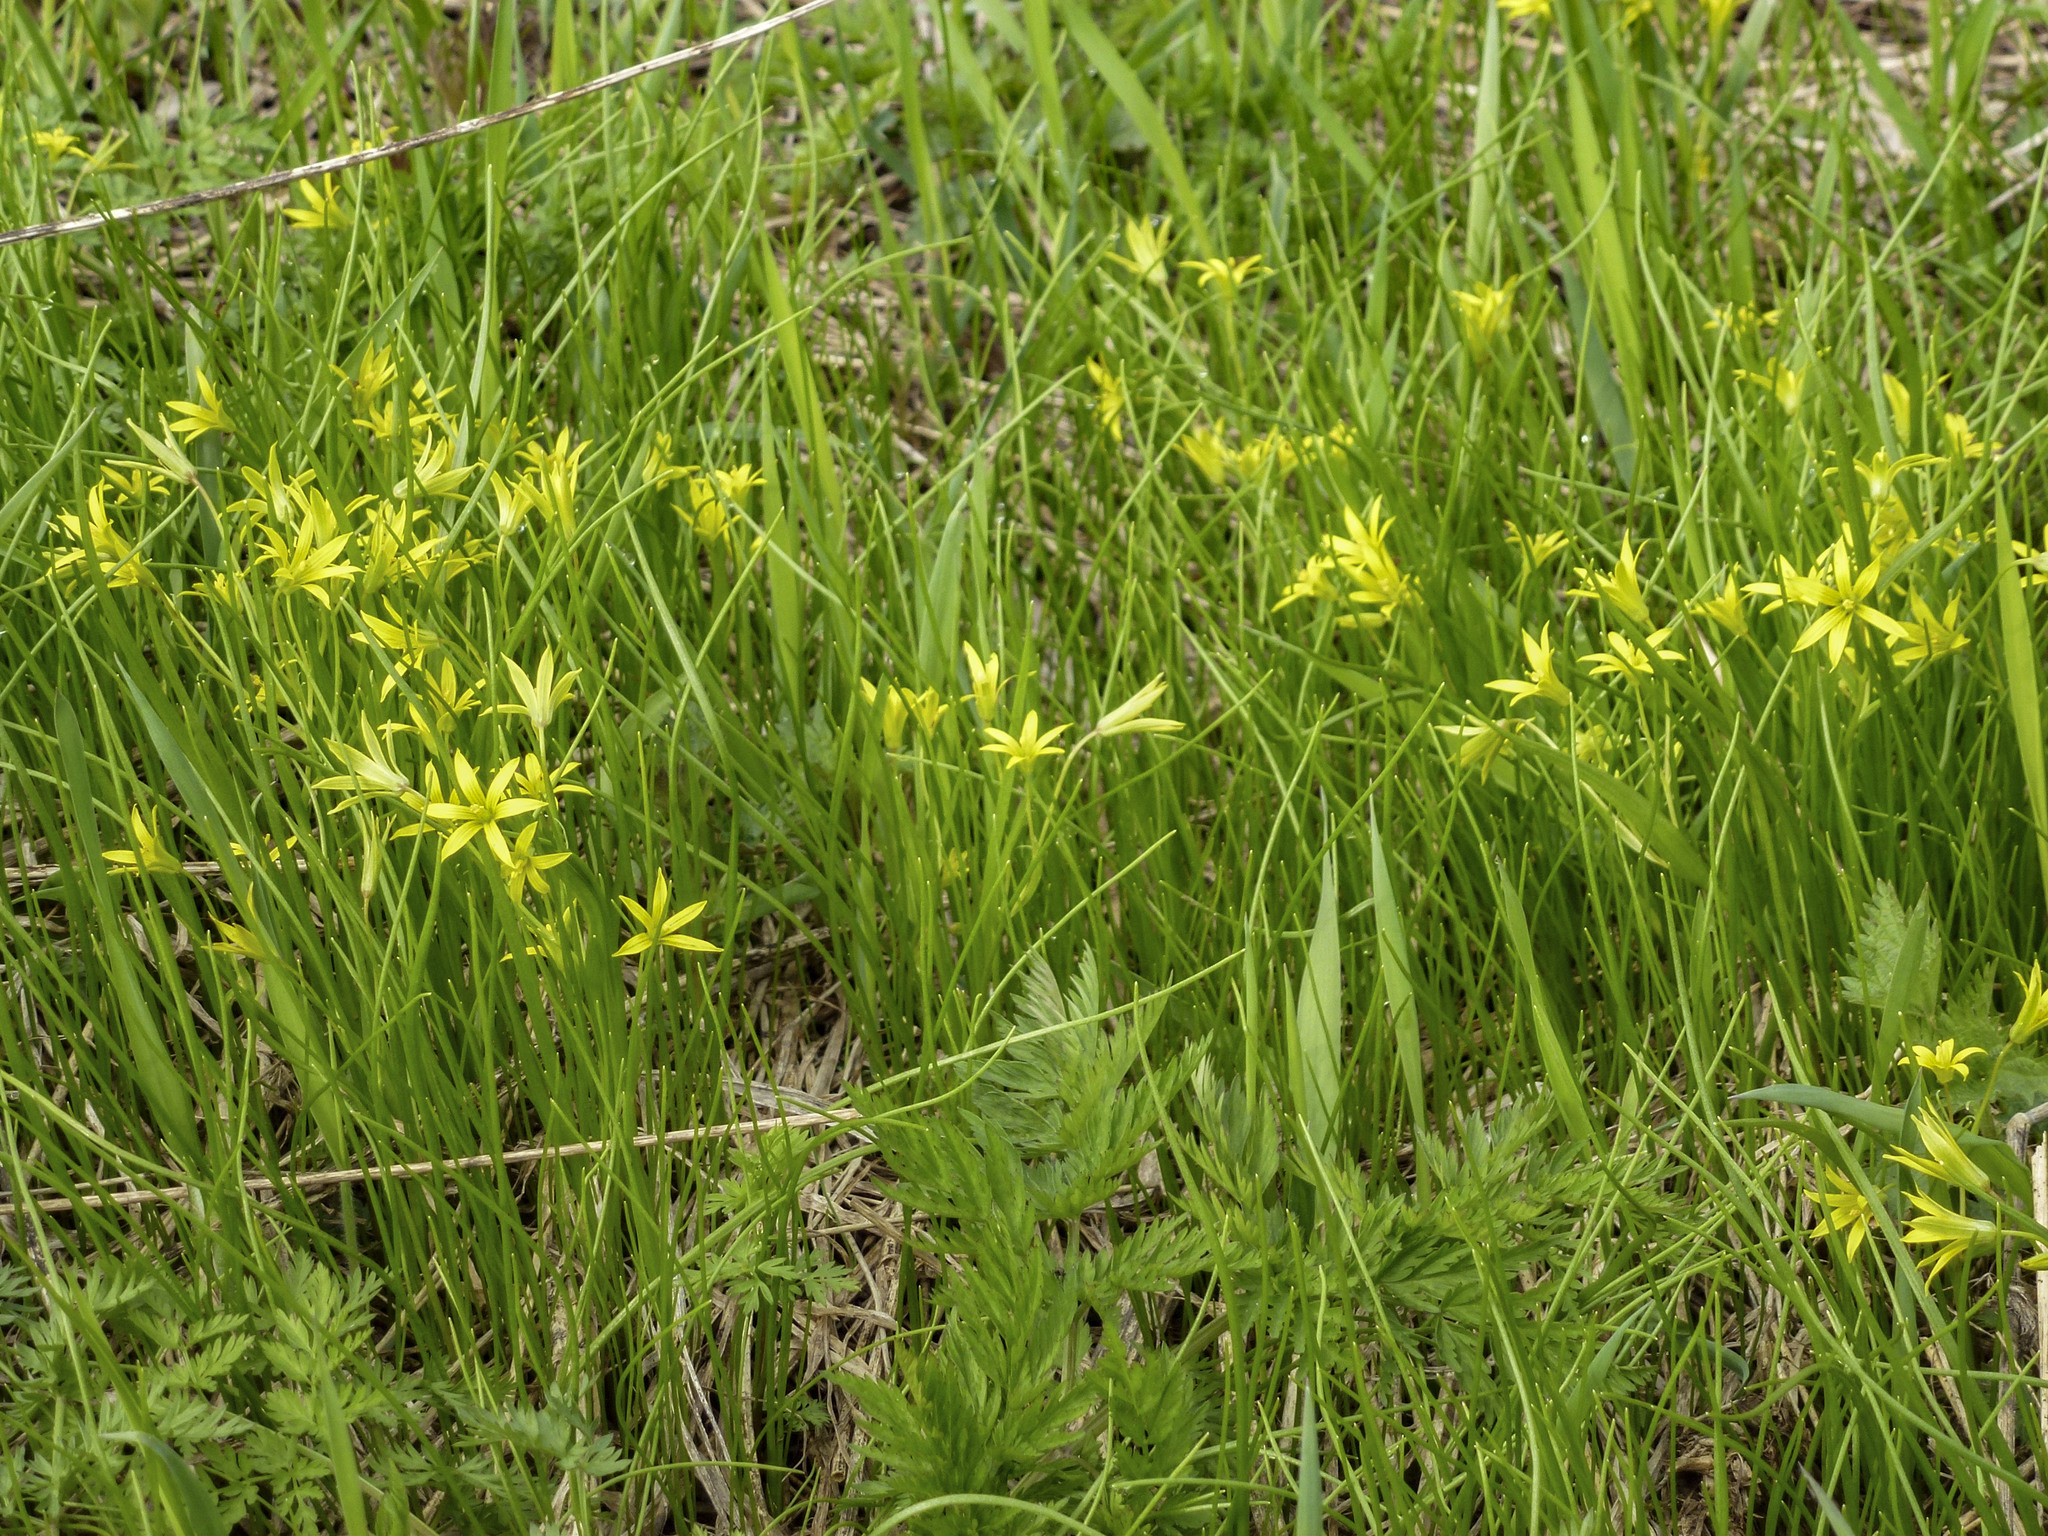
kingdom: Plantae
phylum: Tracheophyta
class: Liliopsida
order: Liliales
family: Liliaceae
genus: Gagea
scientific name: Gagea minima
